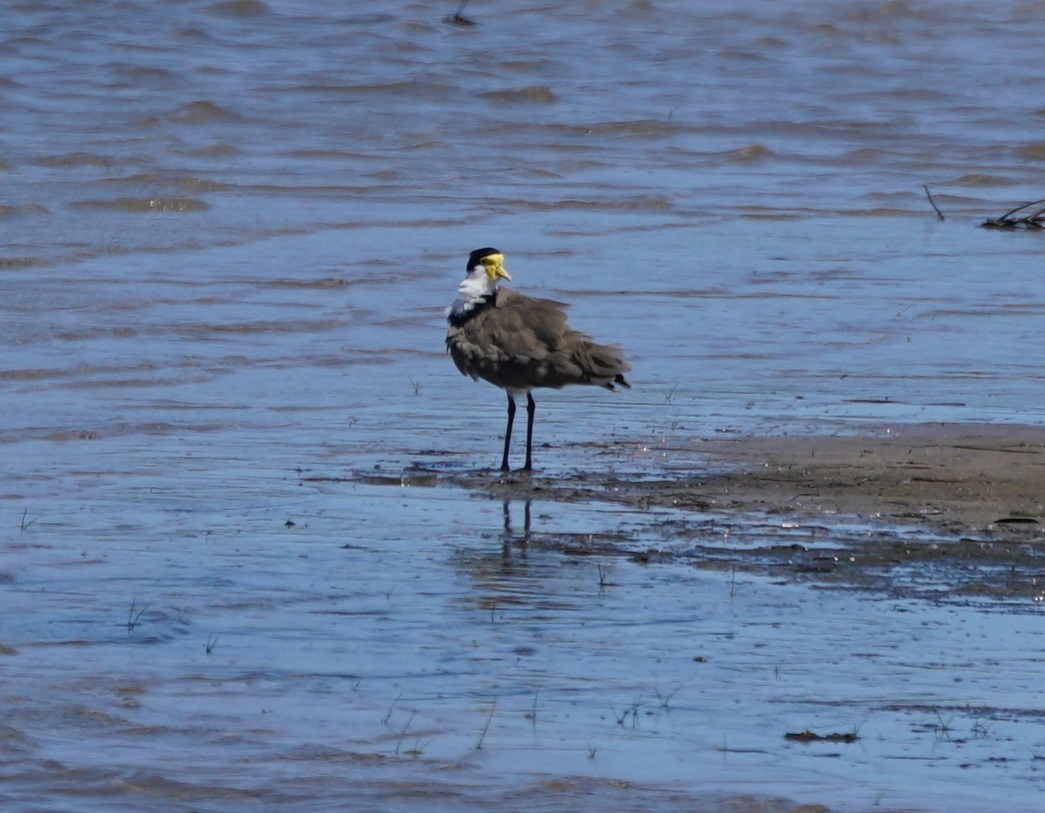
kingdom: Animalia
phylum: Chordata
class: Aves
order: Charadriiformes
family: Charadriidae
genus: Vanellus
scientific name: Vanellus miles
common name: Masked lapwing
